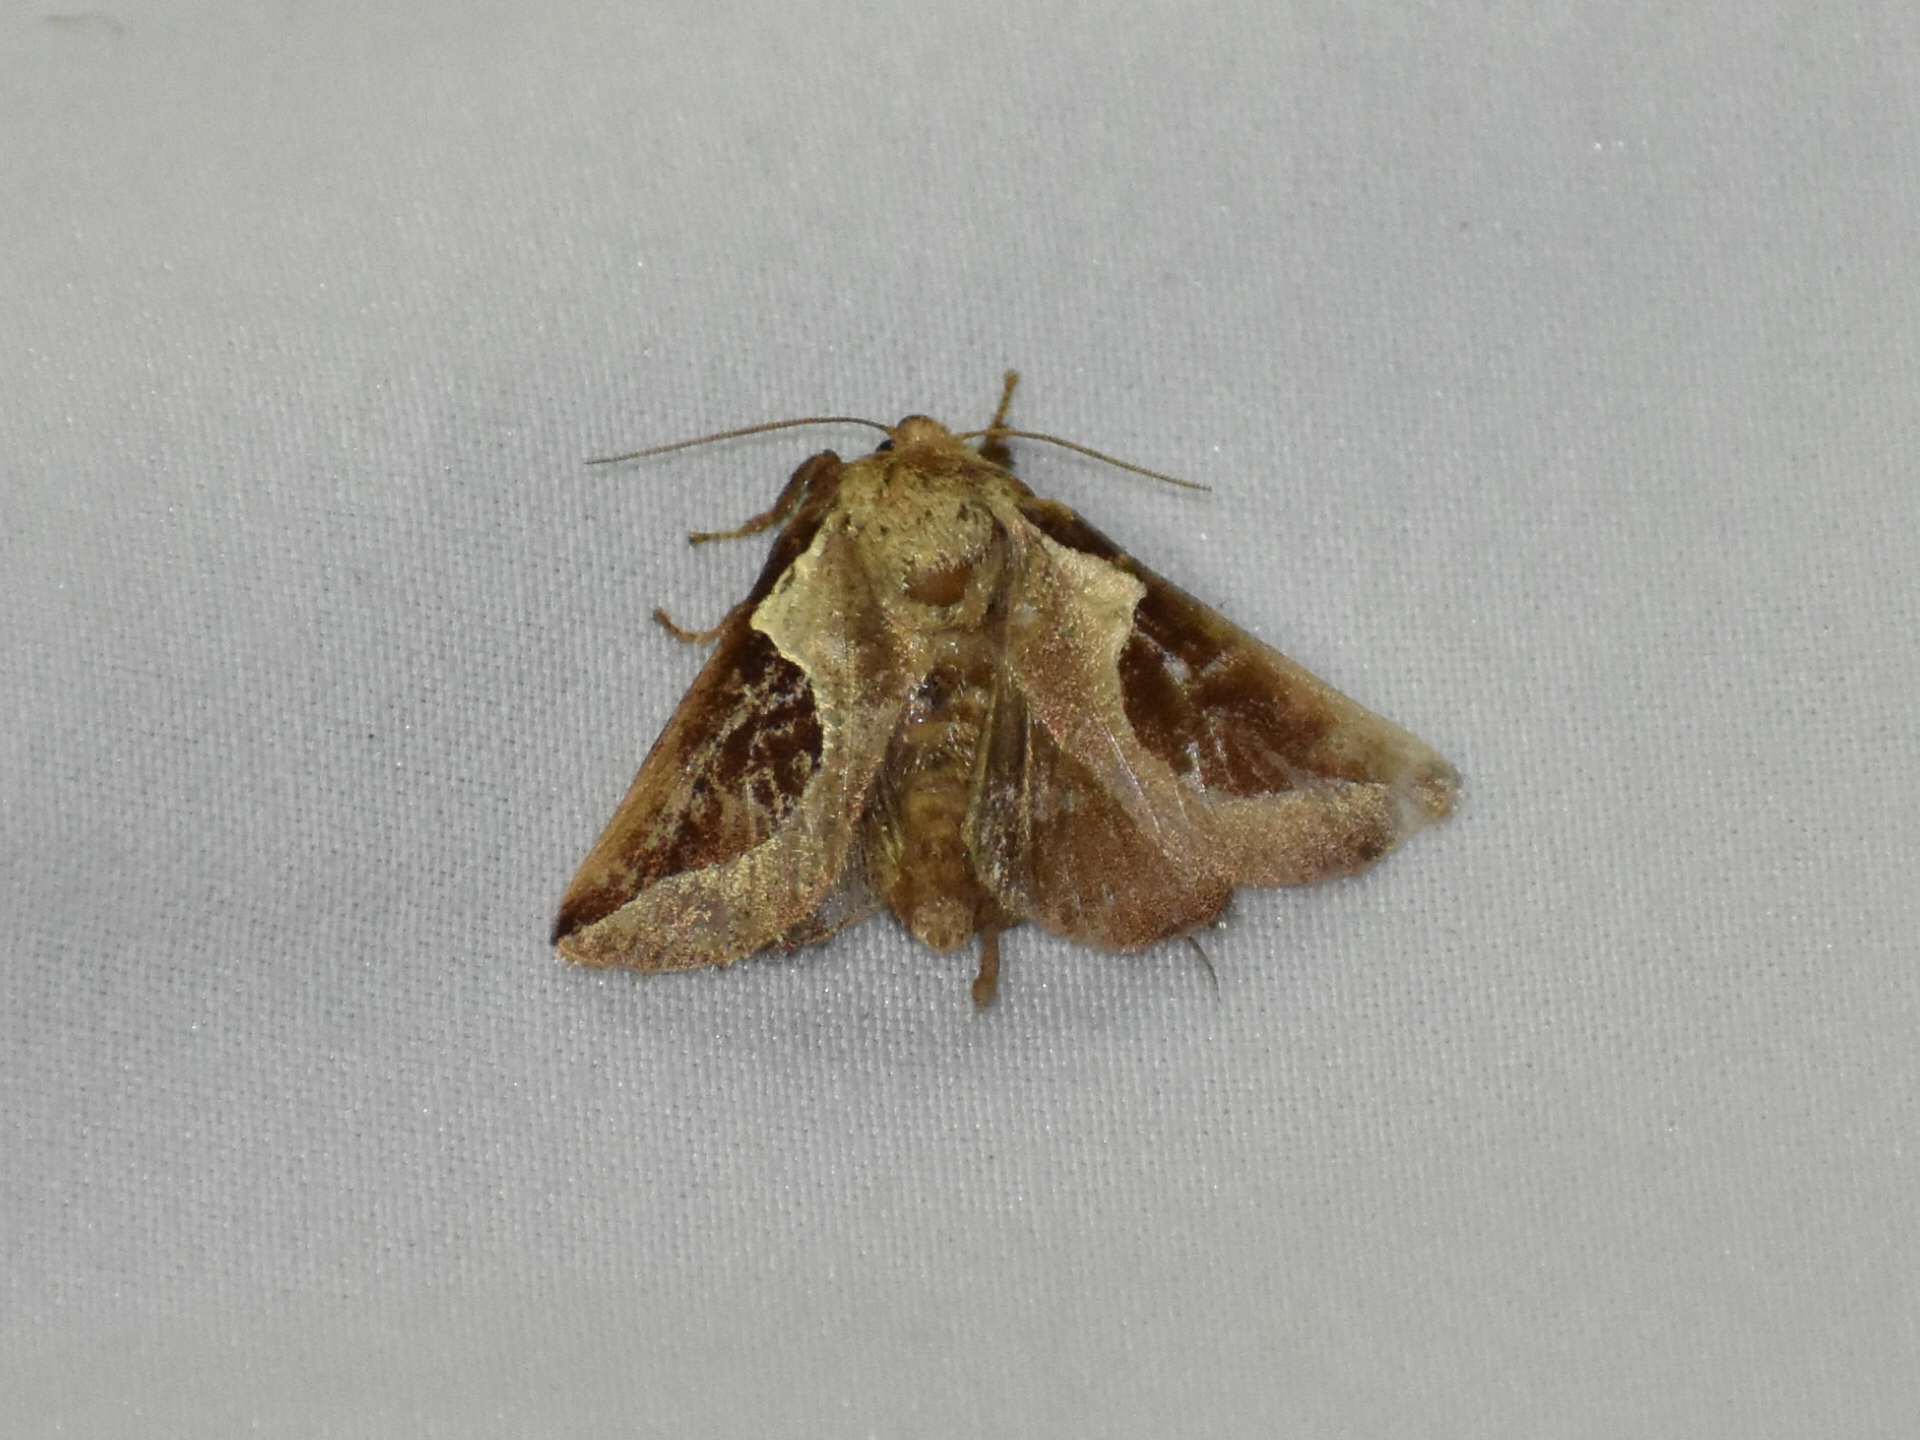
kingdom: Animalia
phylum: Arthropoda
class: Insecta
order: Lepidoptera
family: Limacodidae
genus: Prolimacodes
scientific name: Prolimacodes badia
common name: Skiff moth
